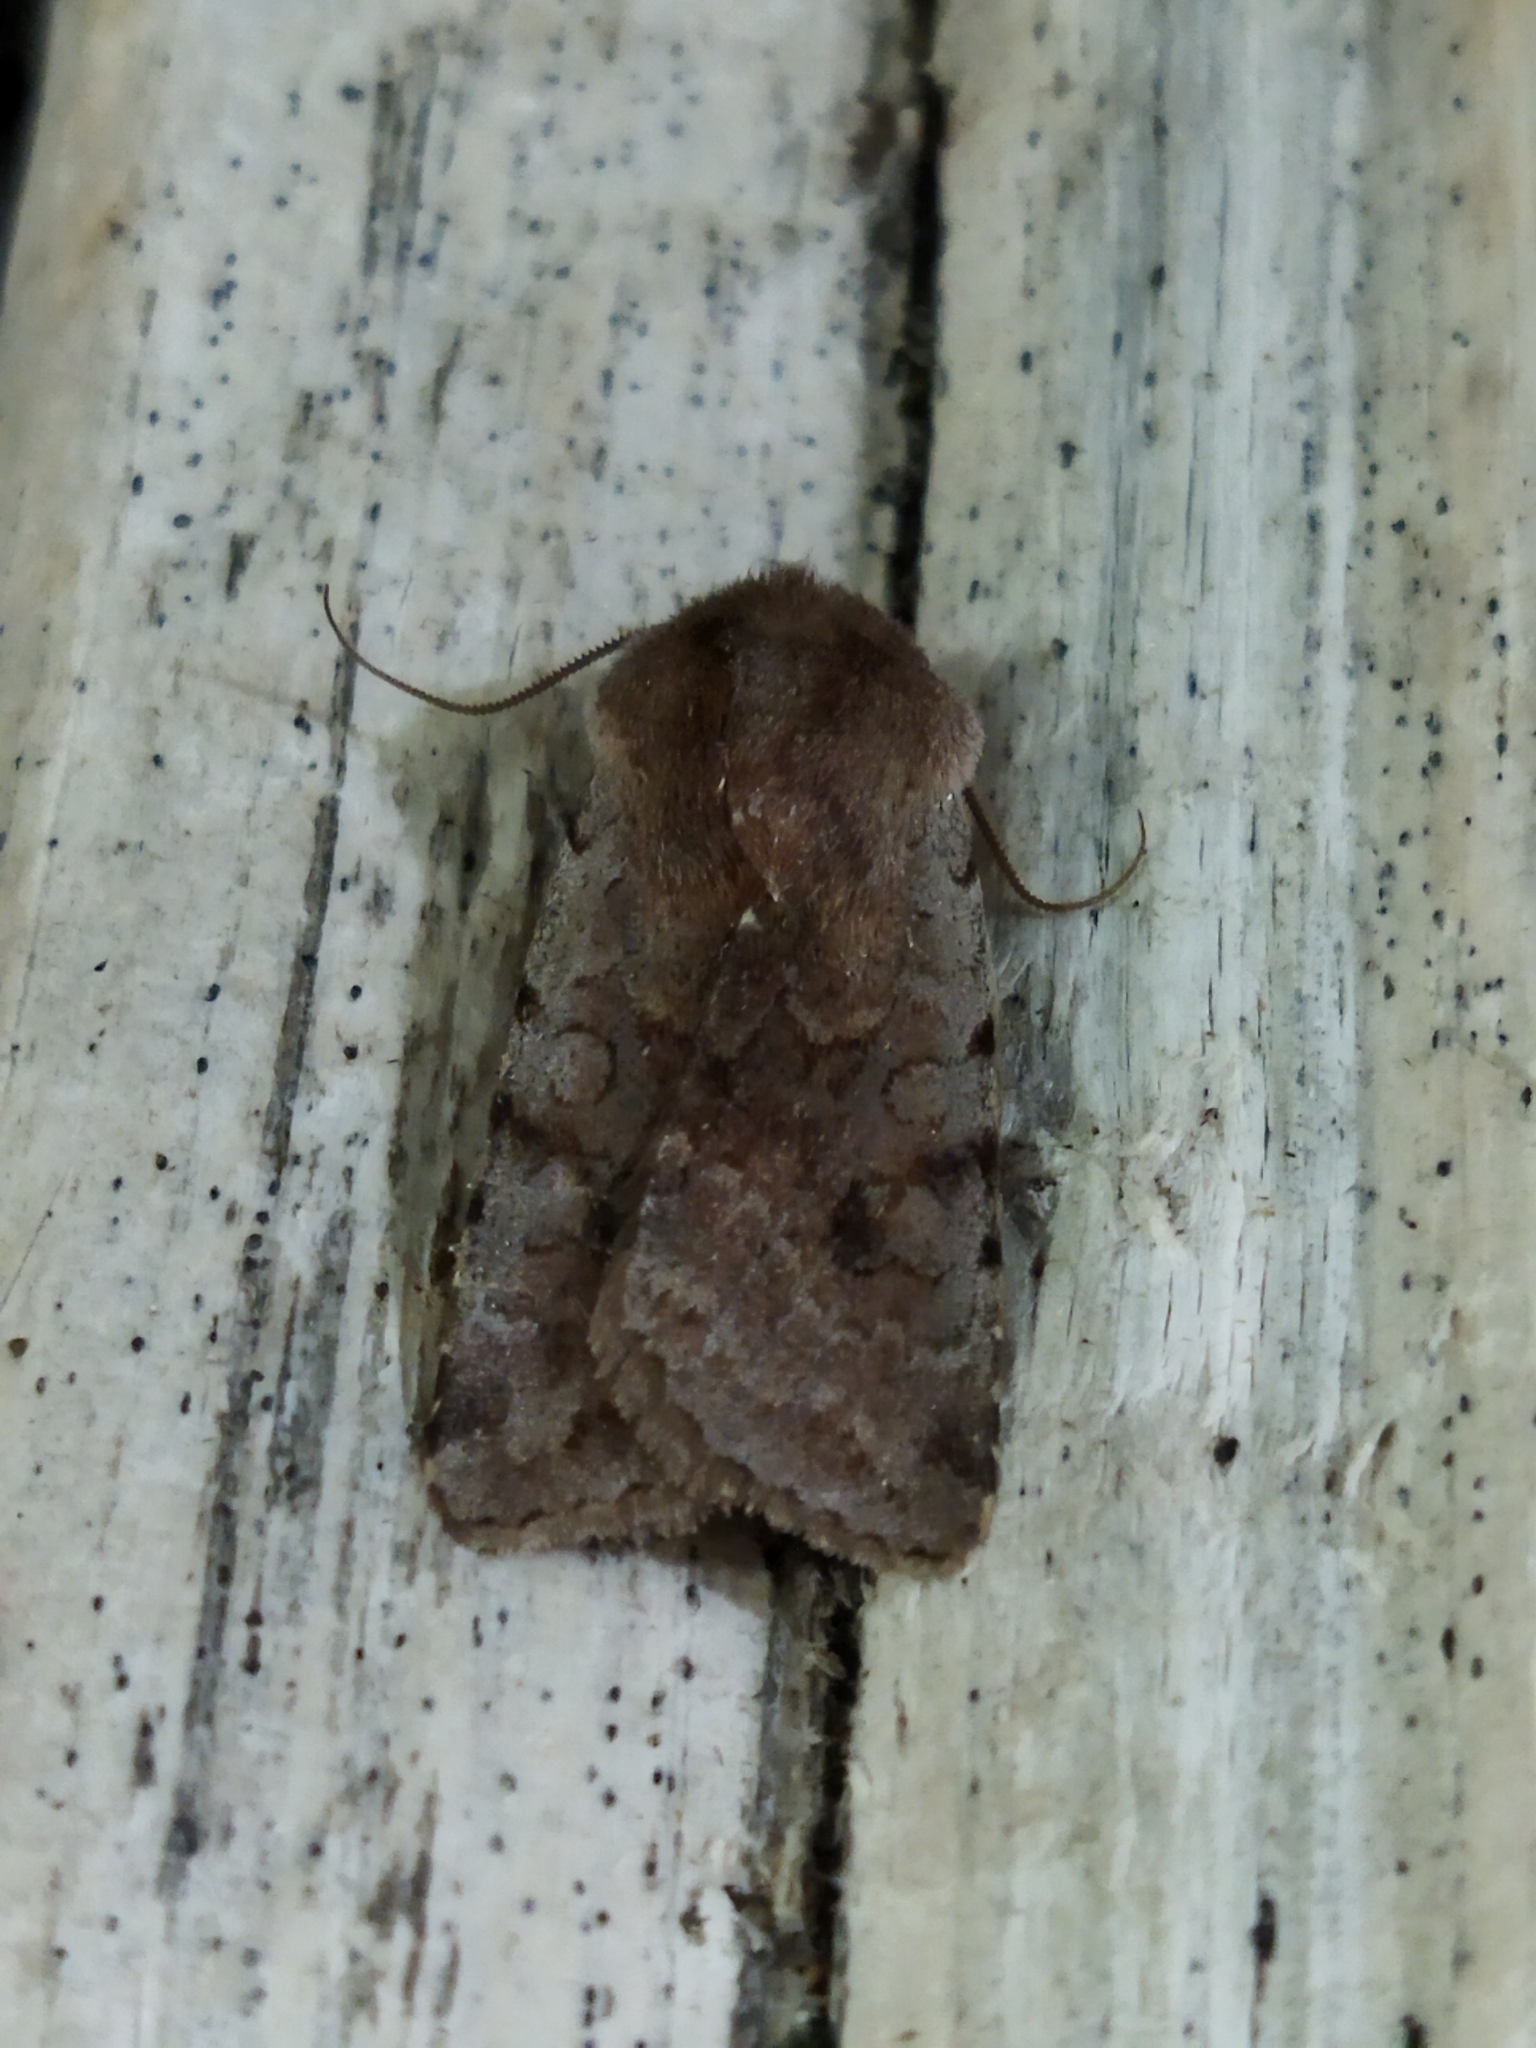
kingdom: Animalia
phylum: Arthropoda
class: Insecta
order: Lepidoptera
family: Noctuidae
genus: Cerastis
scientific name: Cerastis rubricosa
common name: Red chestnut
